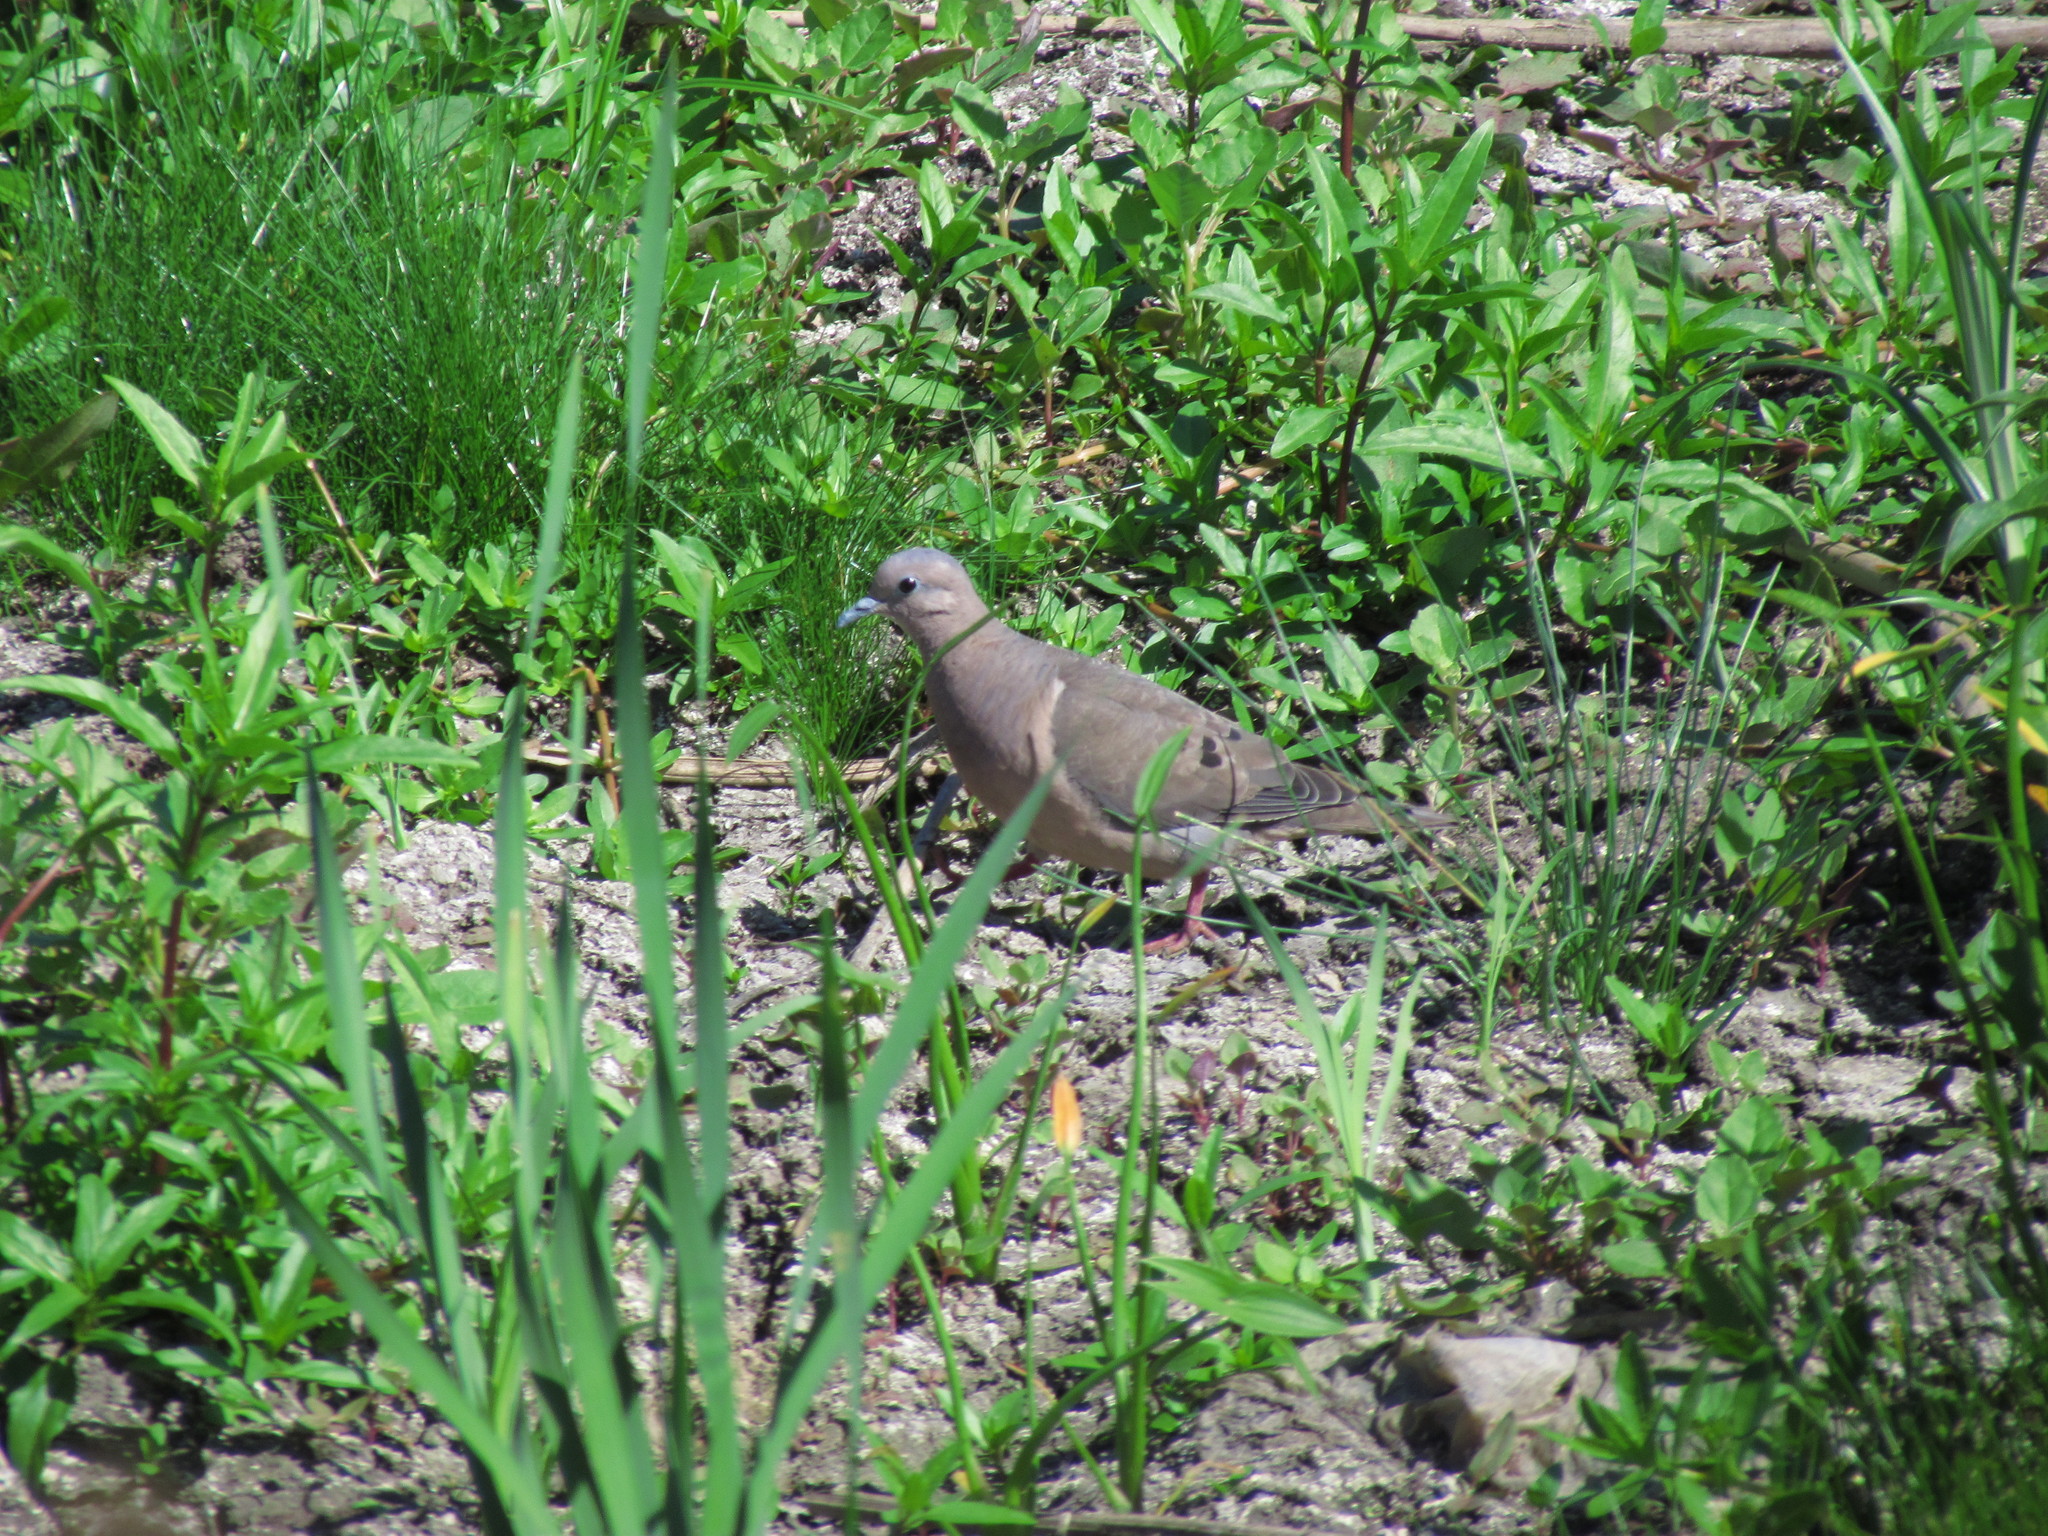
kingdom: Animalia
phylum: Chordata
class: Aves
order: Columbiformes
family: Columbidae
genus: Zenaida
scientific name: Zenaida auriculata
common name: Eared dove
